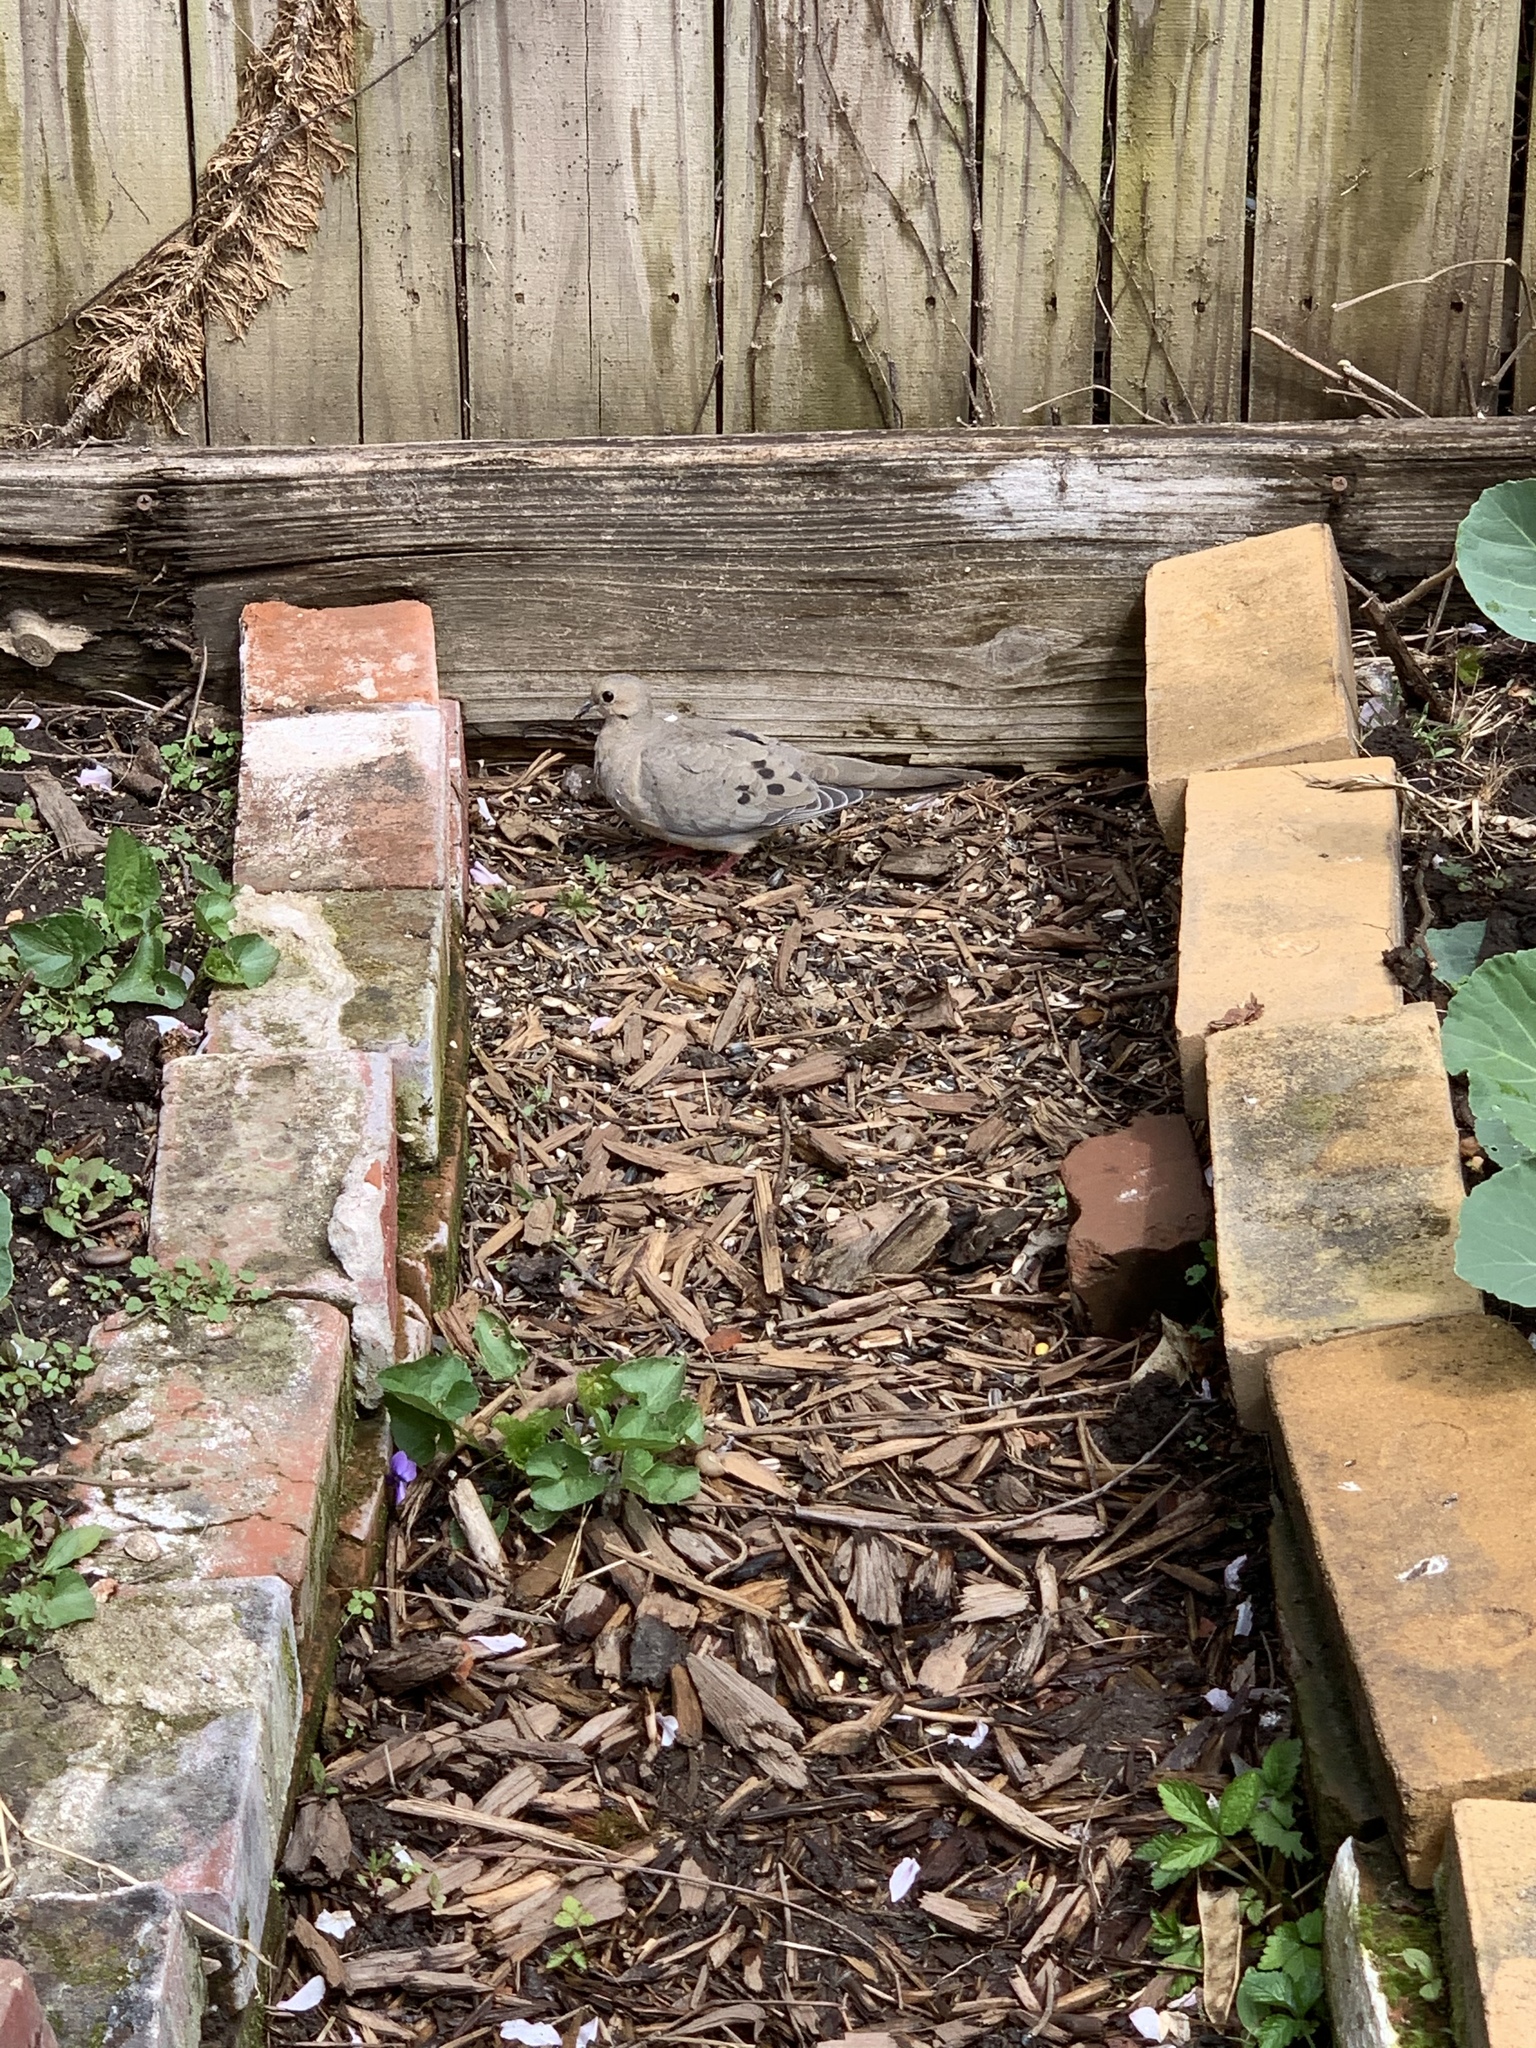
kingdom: Animalia
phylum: Chordata
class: Aves
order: Columbiformes
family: Columbidae
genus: Zenaida
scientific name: Zenaida macroura
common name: Mourning dove
